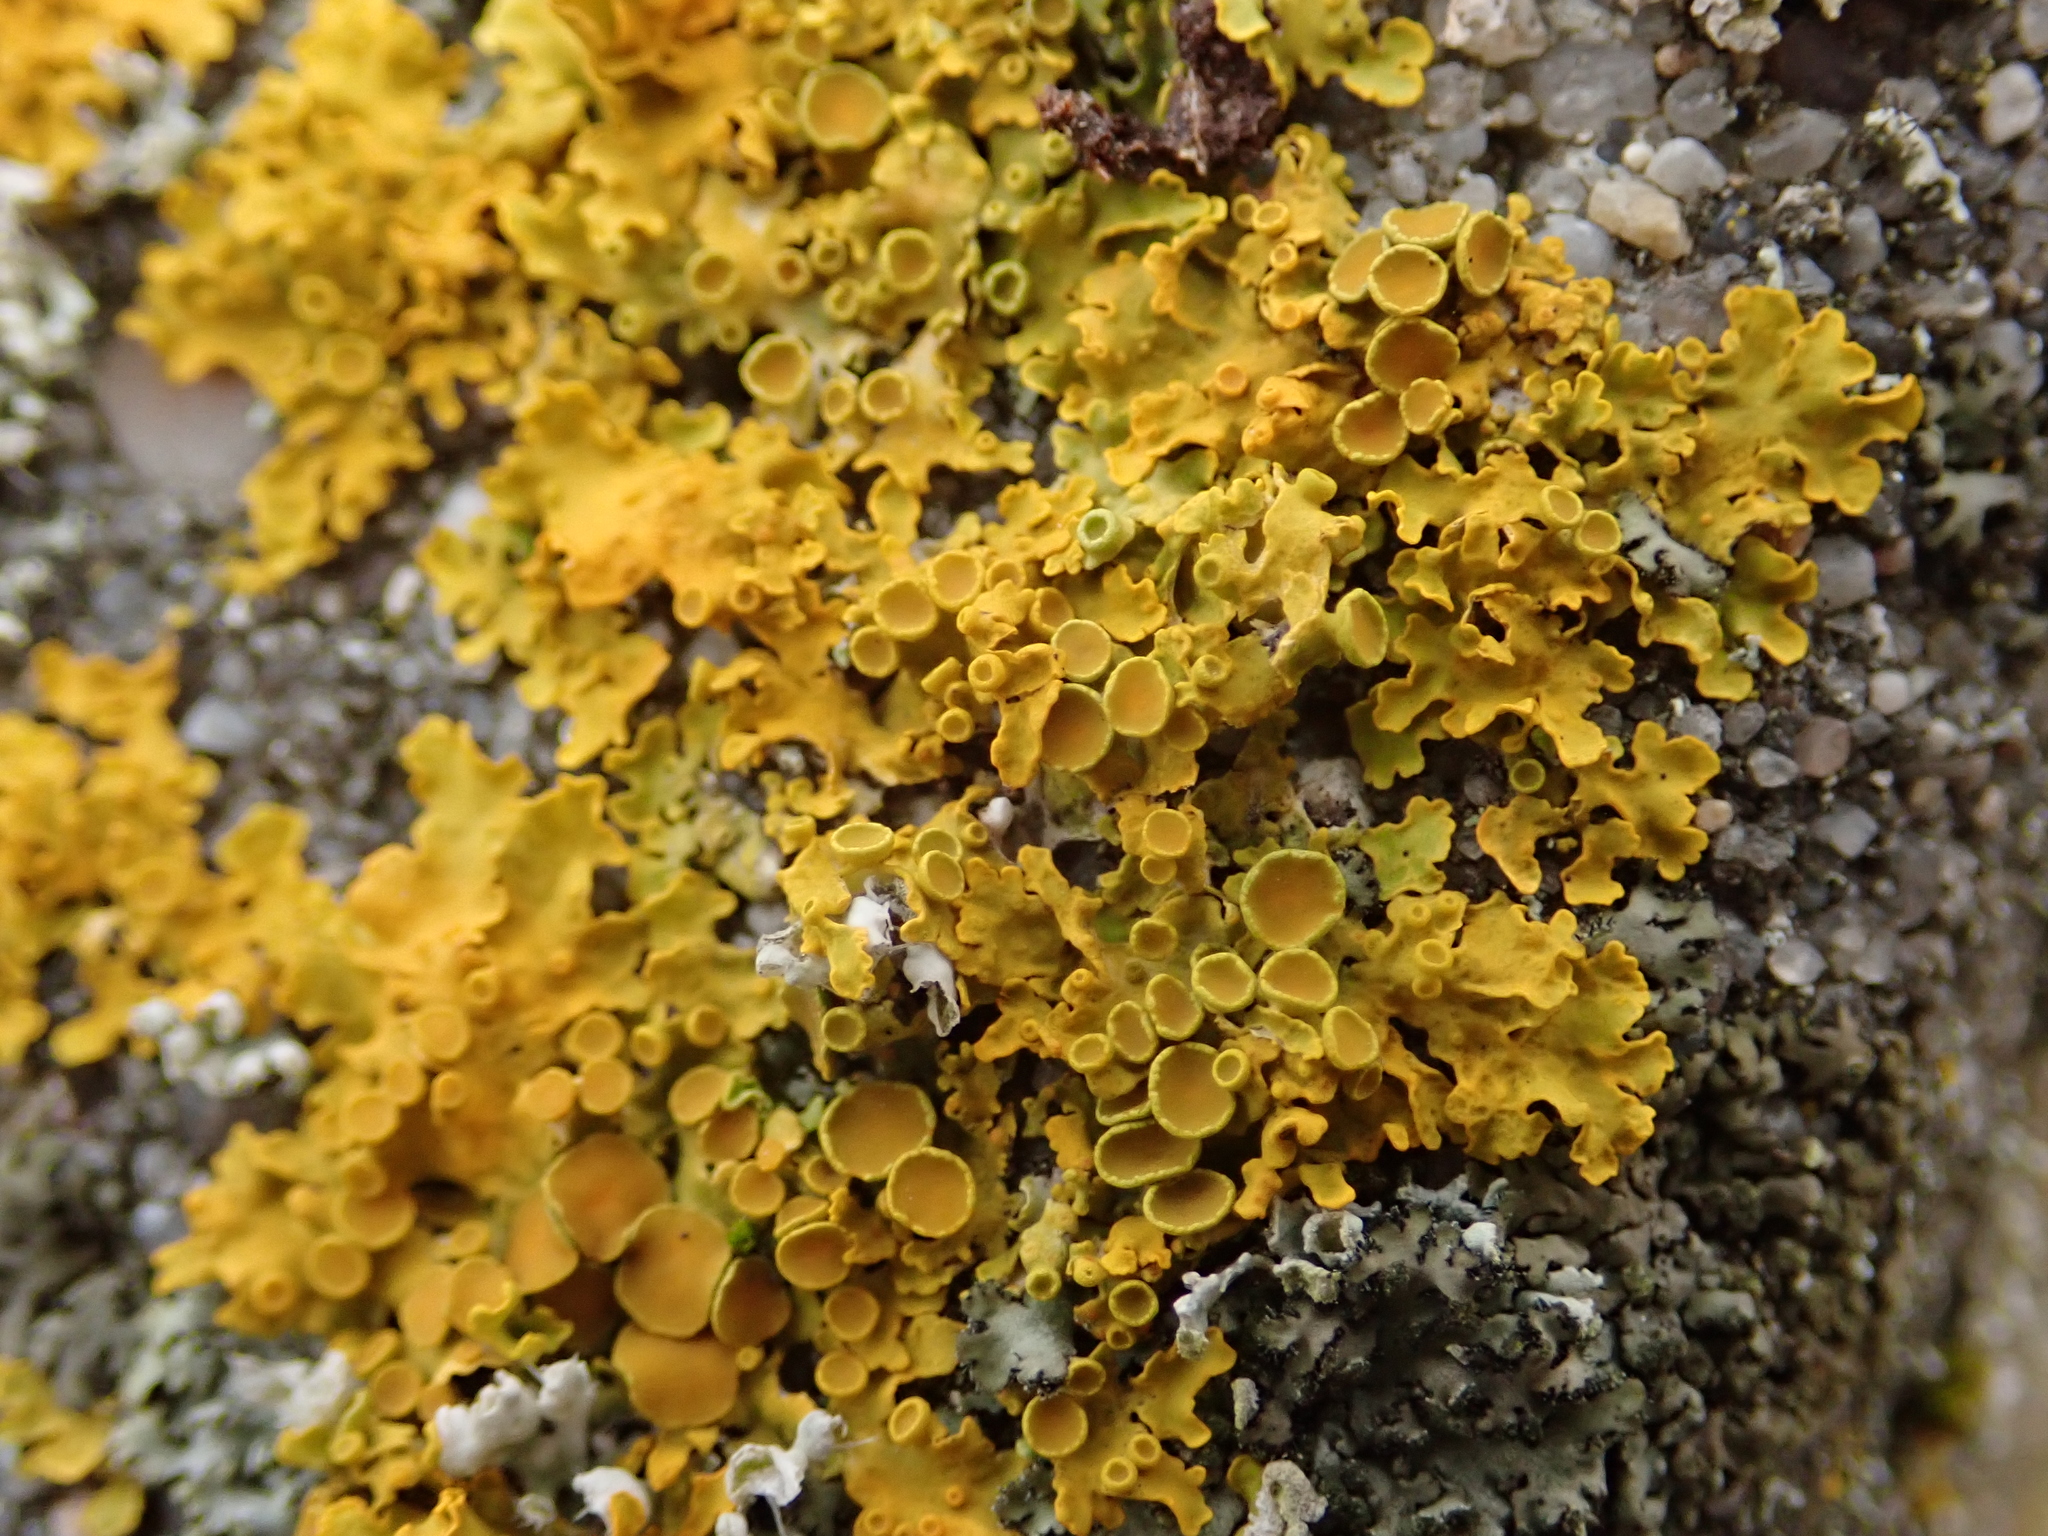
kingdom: Fungi
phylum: Ascomycota
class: Lecanoromycetes
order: Teloschistales
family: Teloschistaceae
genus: Xanthoria
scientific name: Xanthoria parietina
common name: Common orange lichen
